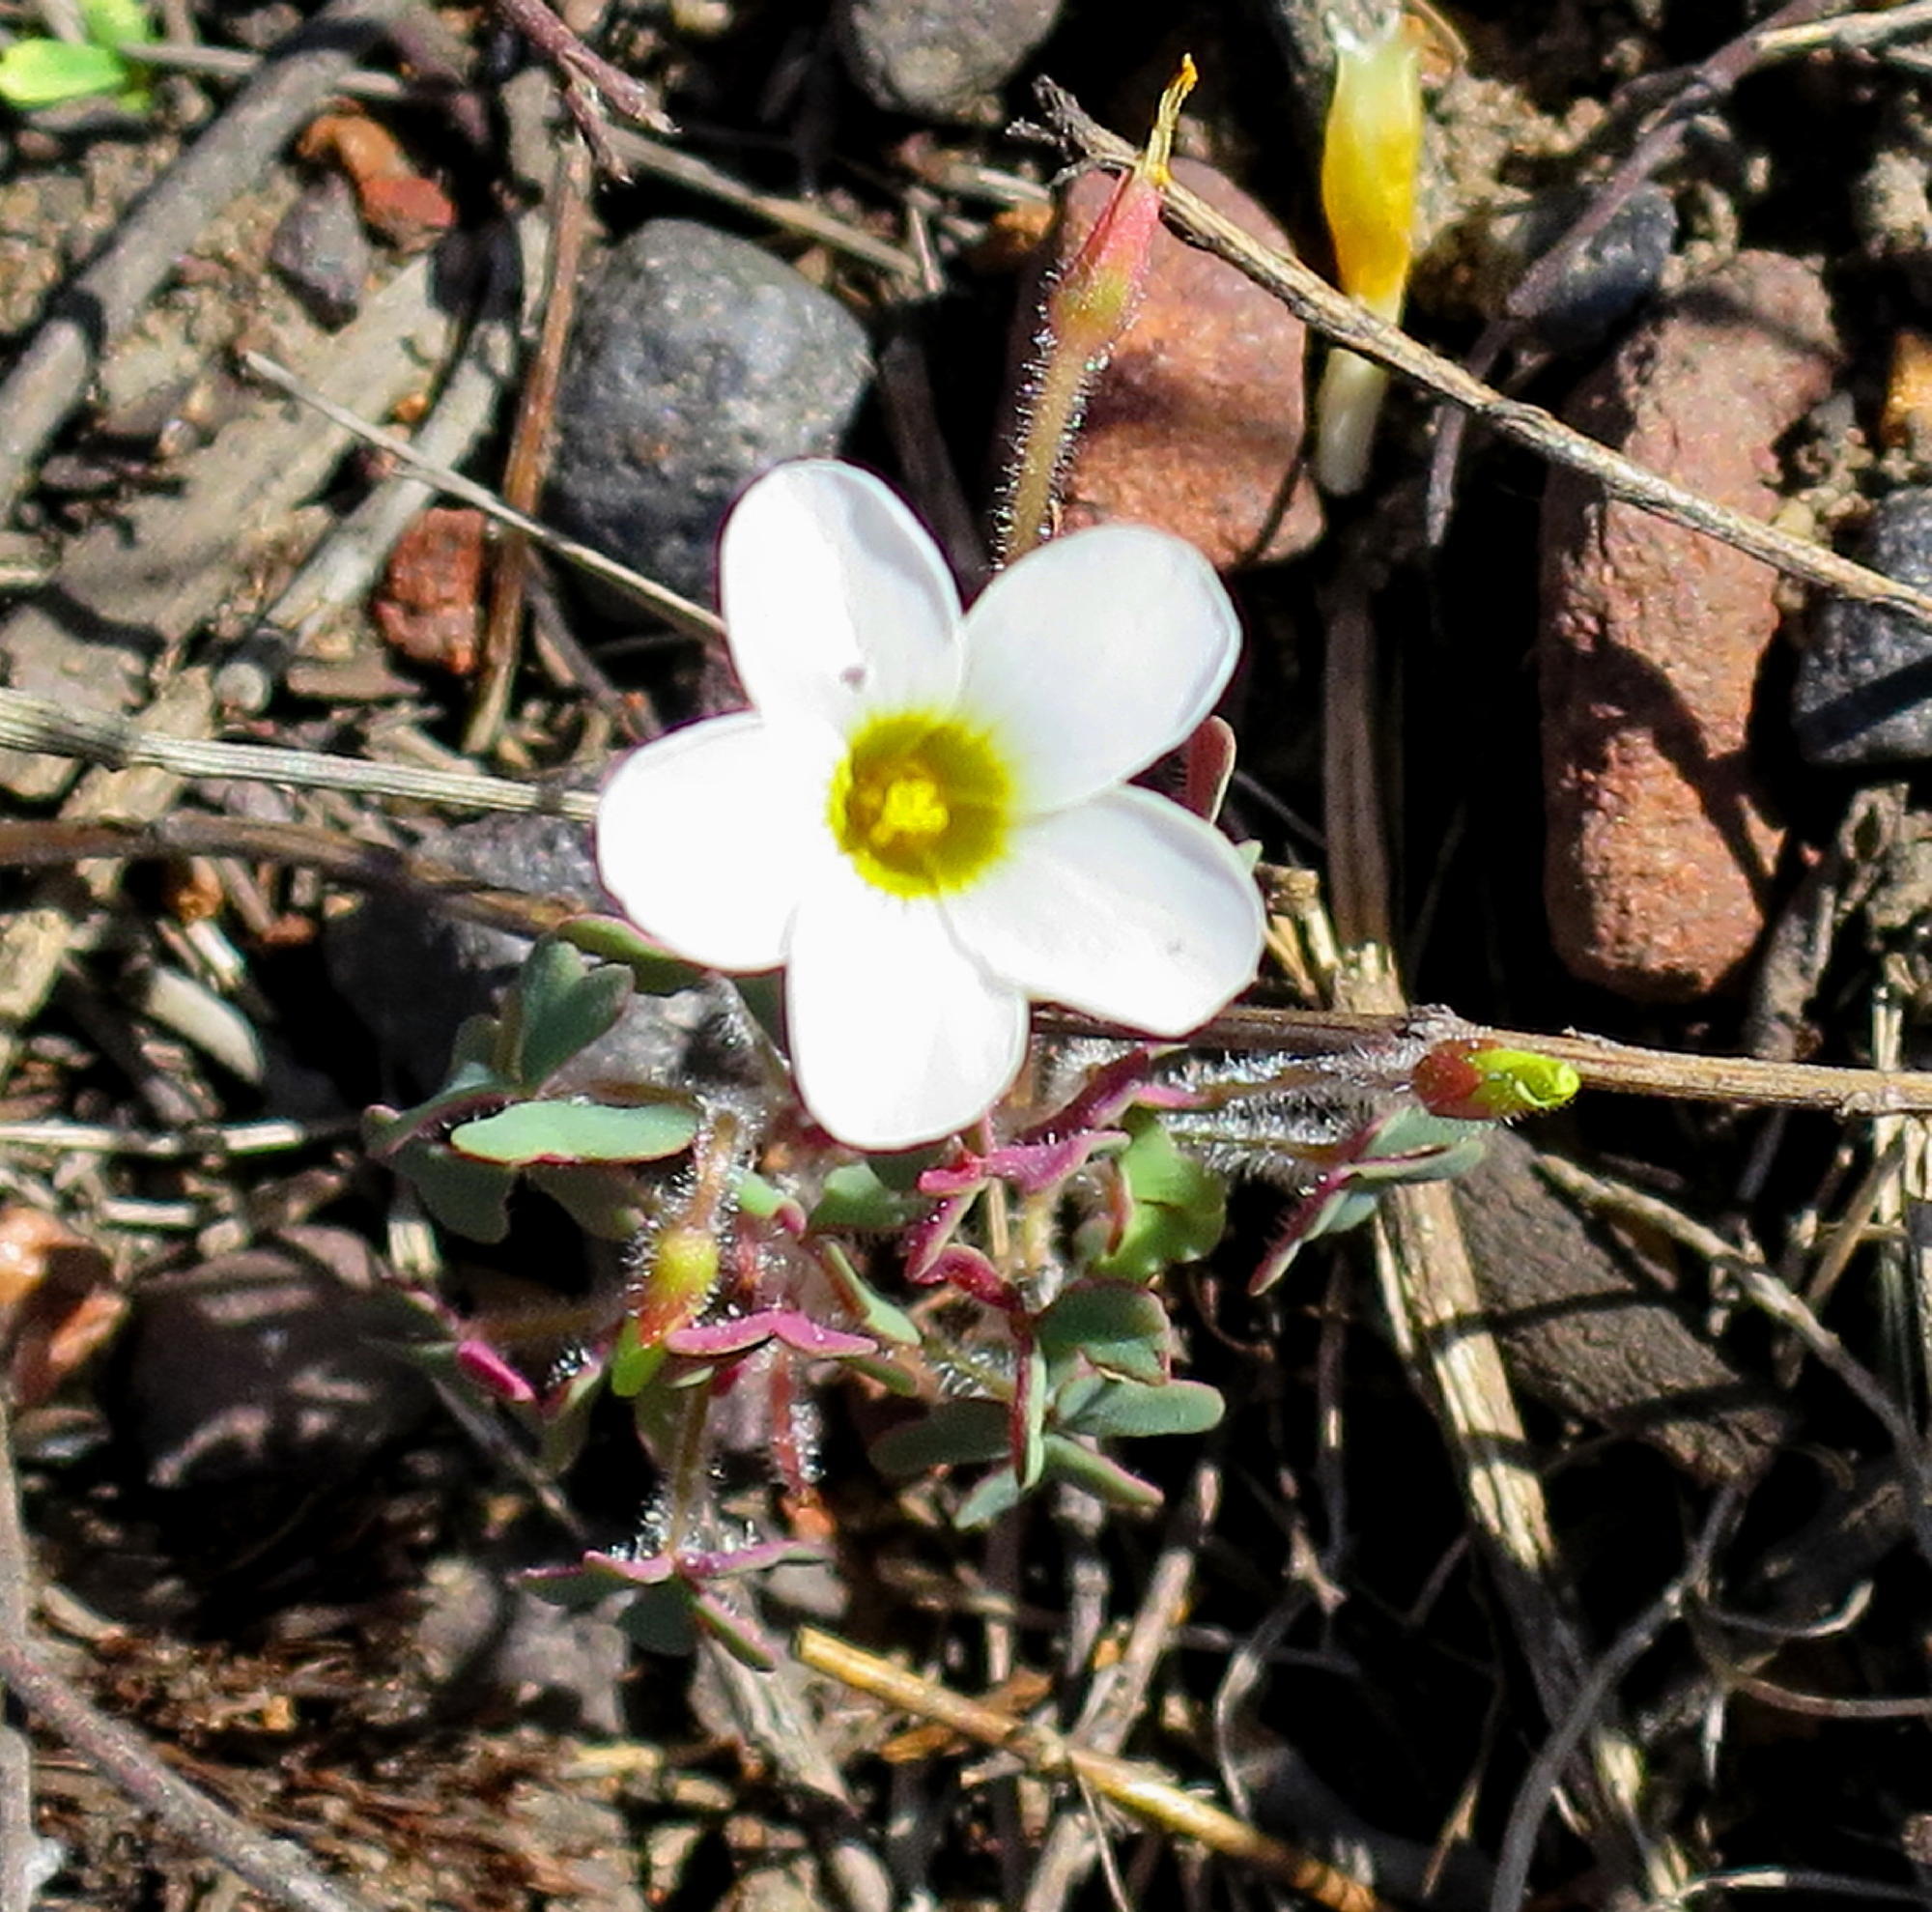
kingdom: Plantae
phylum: Tracheophyta
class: Magnoliopsida
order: Oxalidales
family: Oxalidaceae
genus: Oxalis
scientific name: Oxalis attaquana
